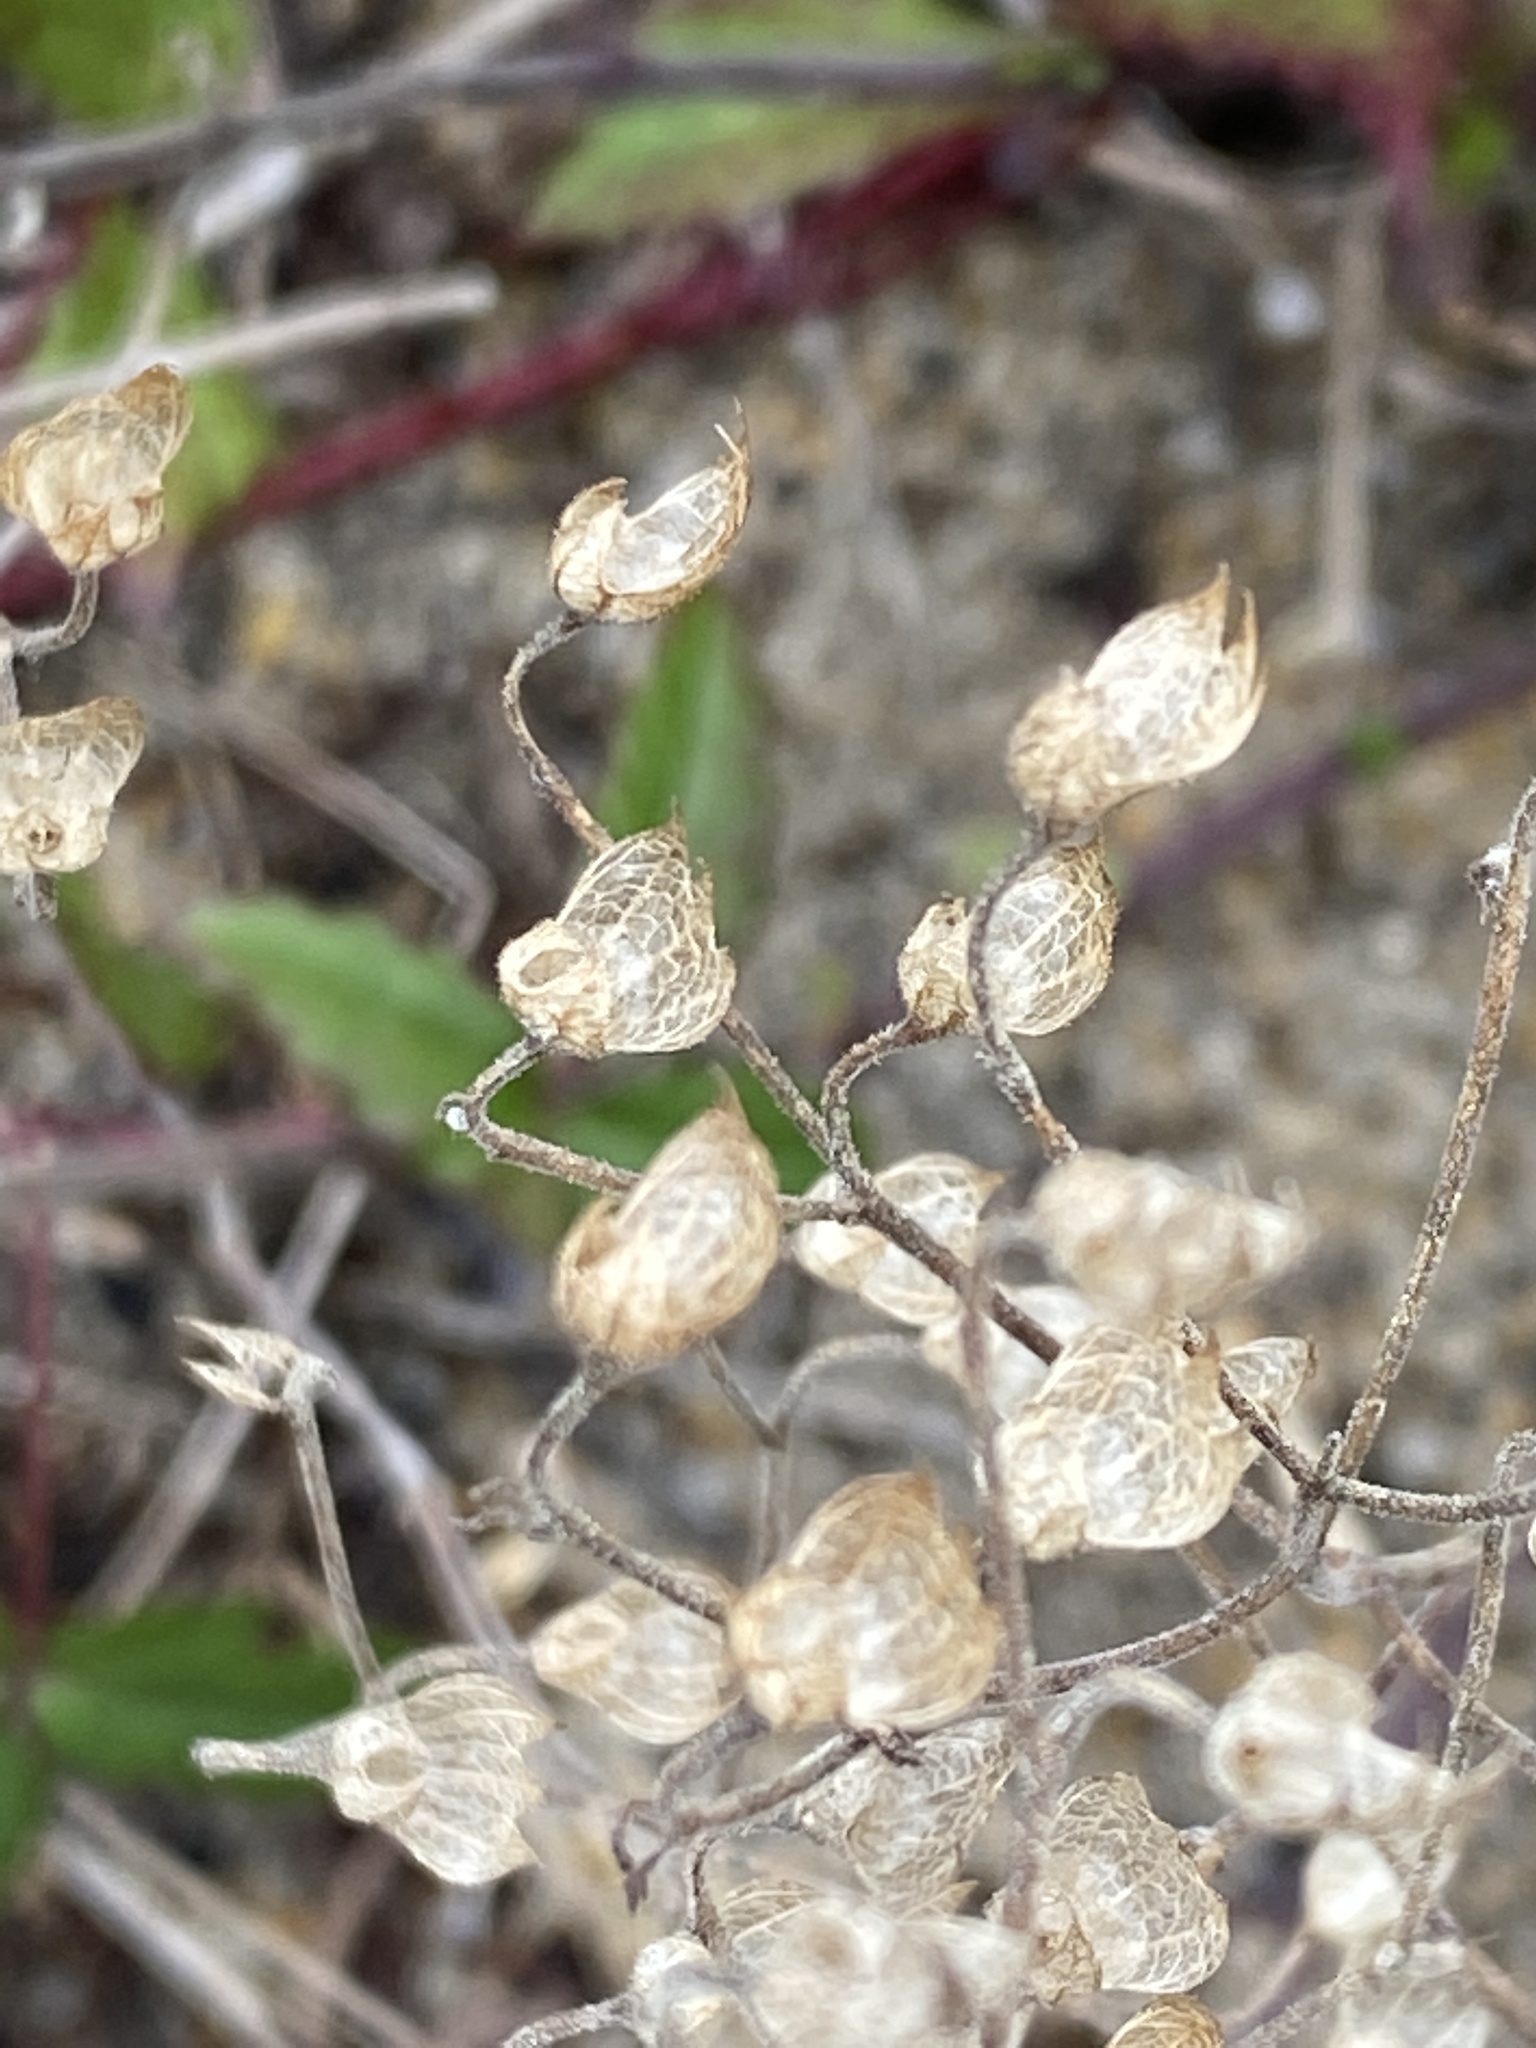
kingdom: Plantae
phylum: Tracheophyta
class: Magnoliopsida
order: Lamiales
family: Lamiaceae
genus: Trichostema
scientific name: Trichostema nesophilum
